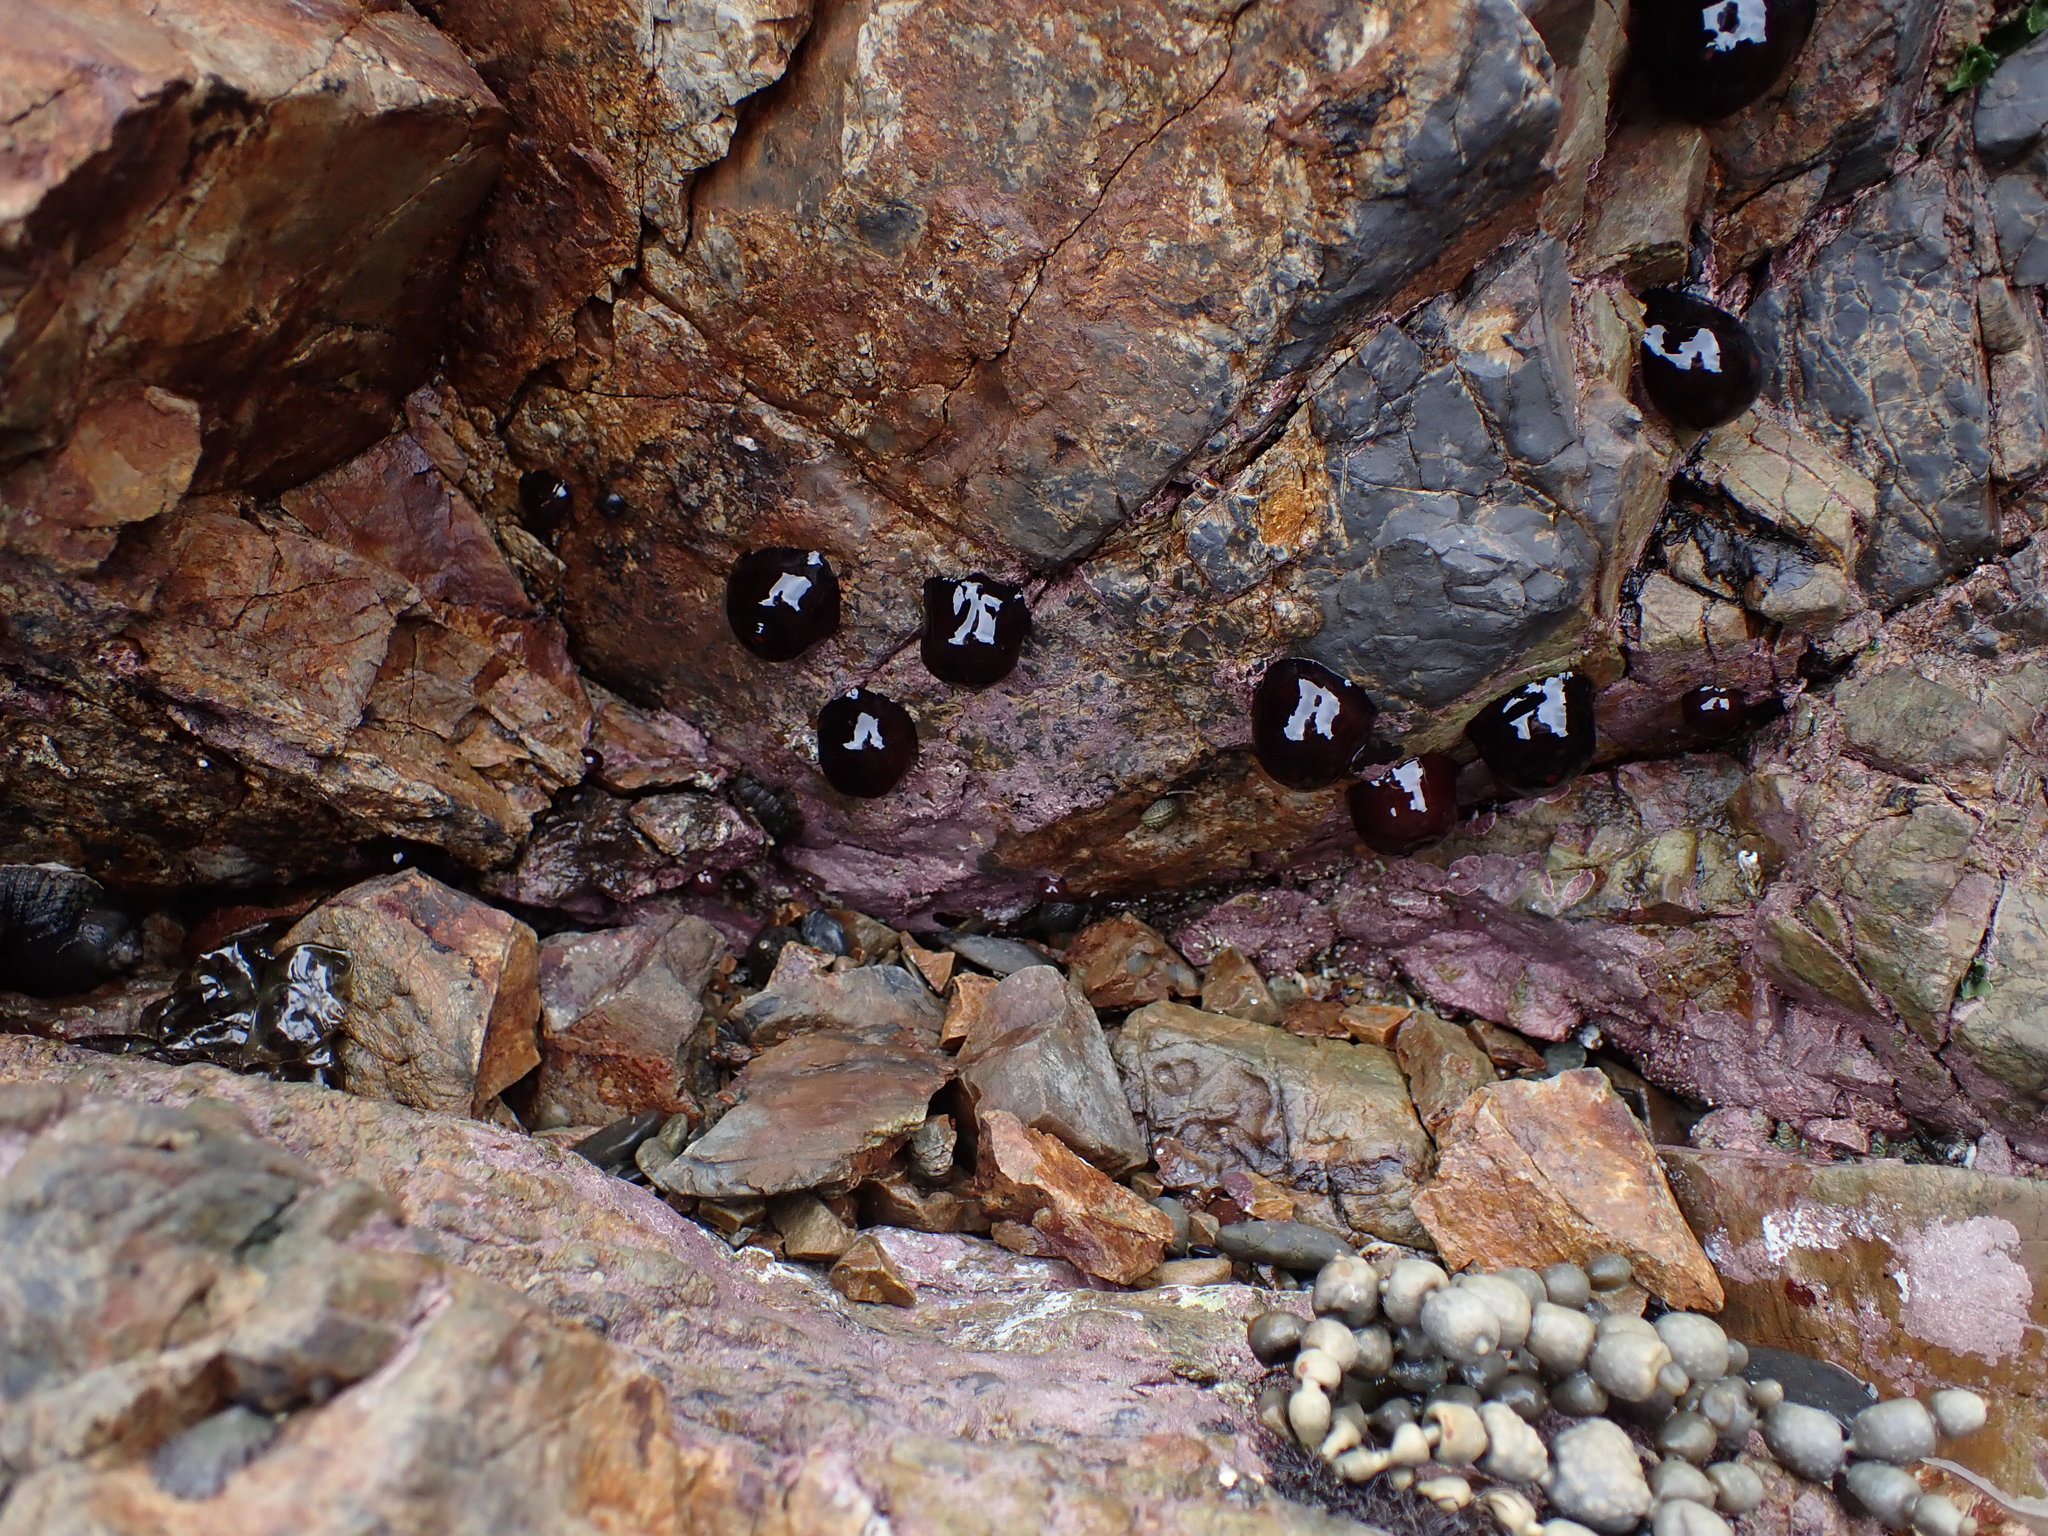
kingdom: Animalia
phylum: Cnidaria
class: Anthozoa
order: Actiniaria
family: Actiniidae
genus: Actinia
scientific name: Actinia tenebrosa
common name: Waratah anemone
